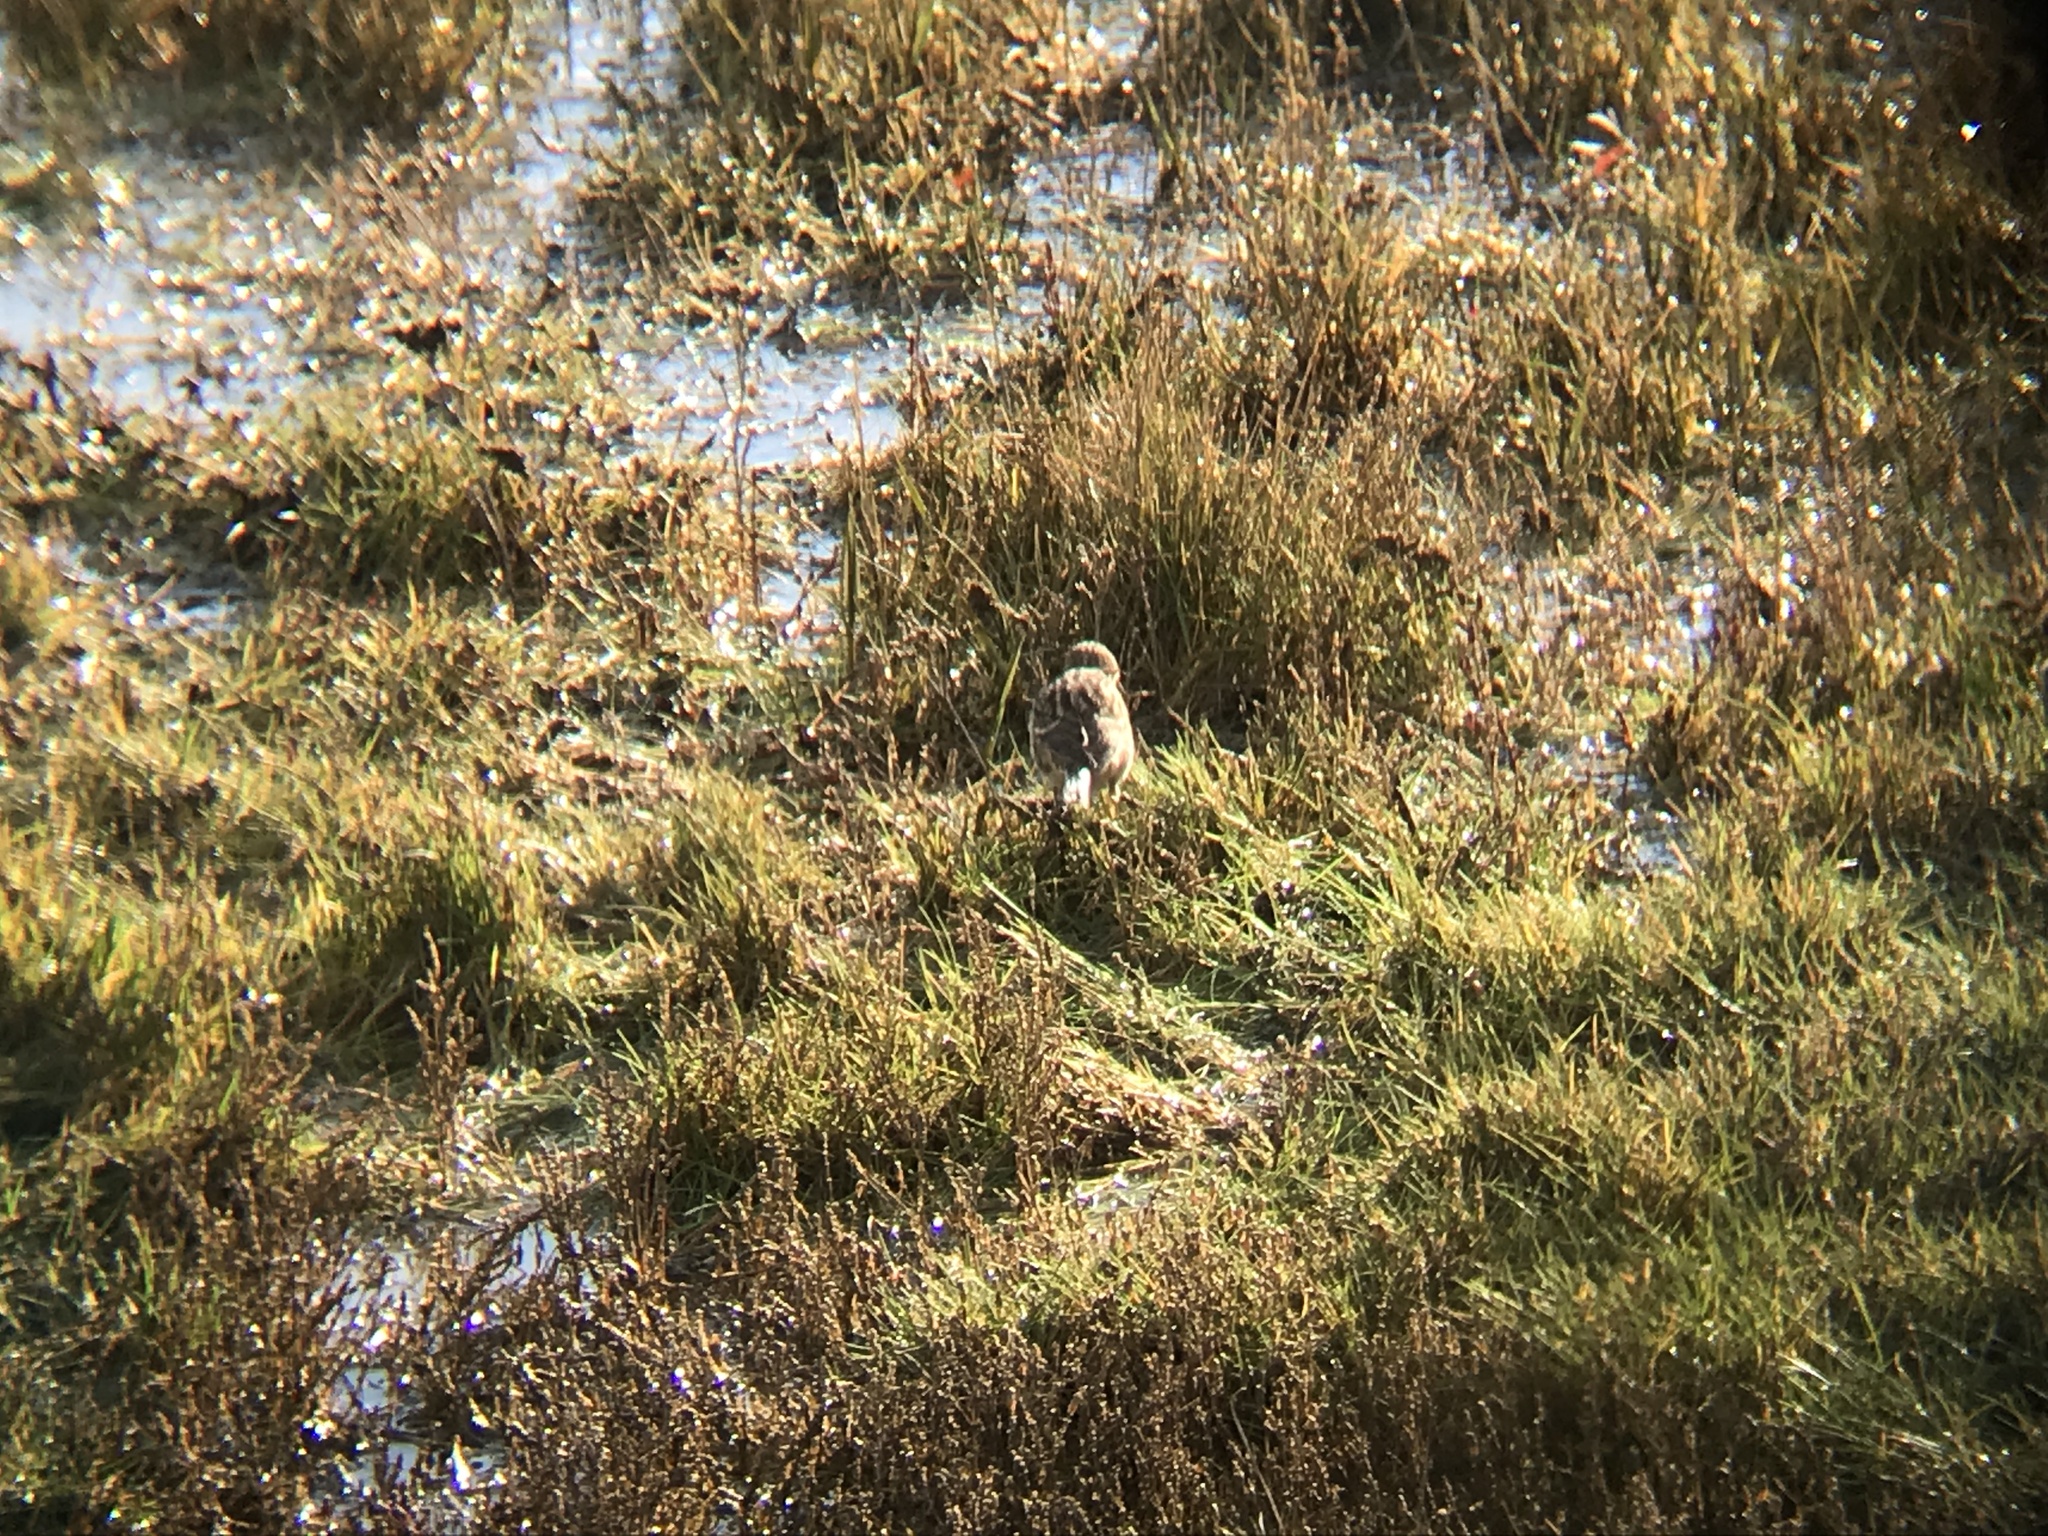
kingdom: Animalia
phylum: Chordata
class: Aves
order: Passeriformes
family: Fringillidae
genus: Linaria
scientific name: Linaria flavirostris
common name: Twite
